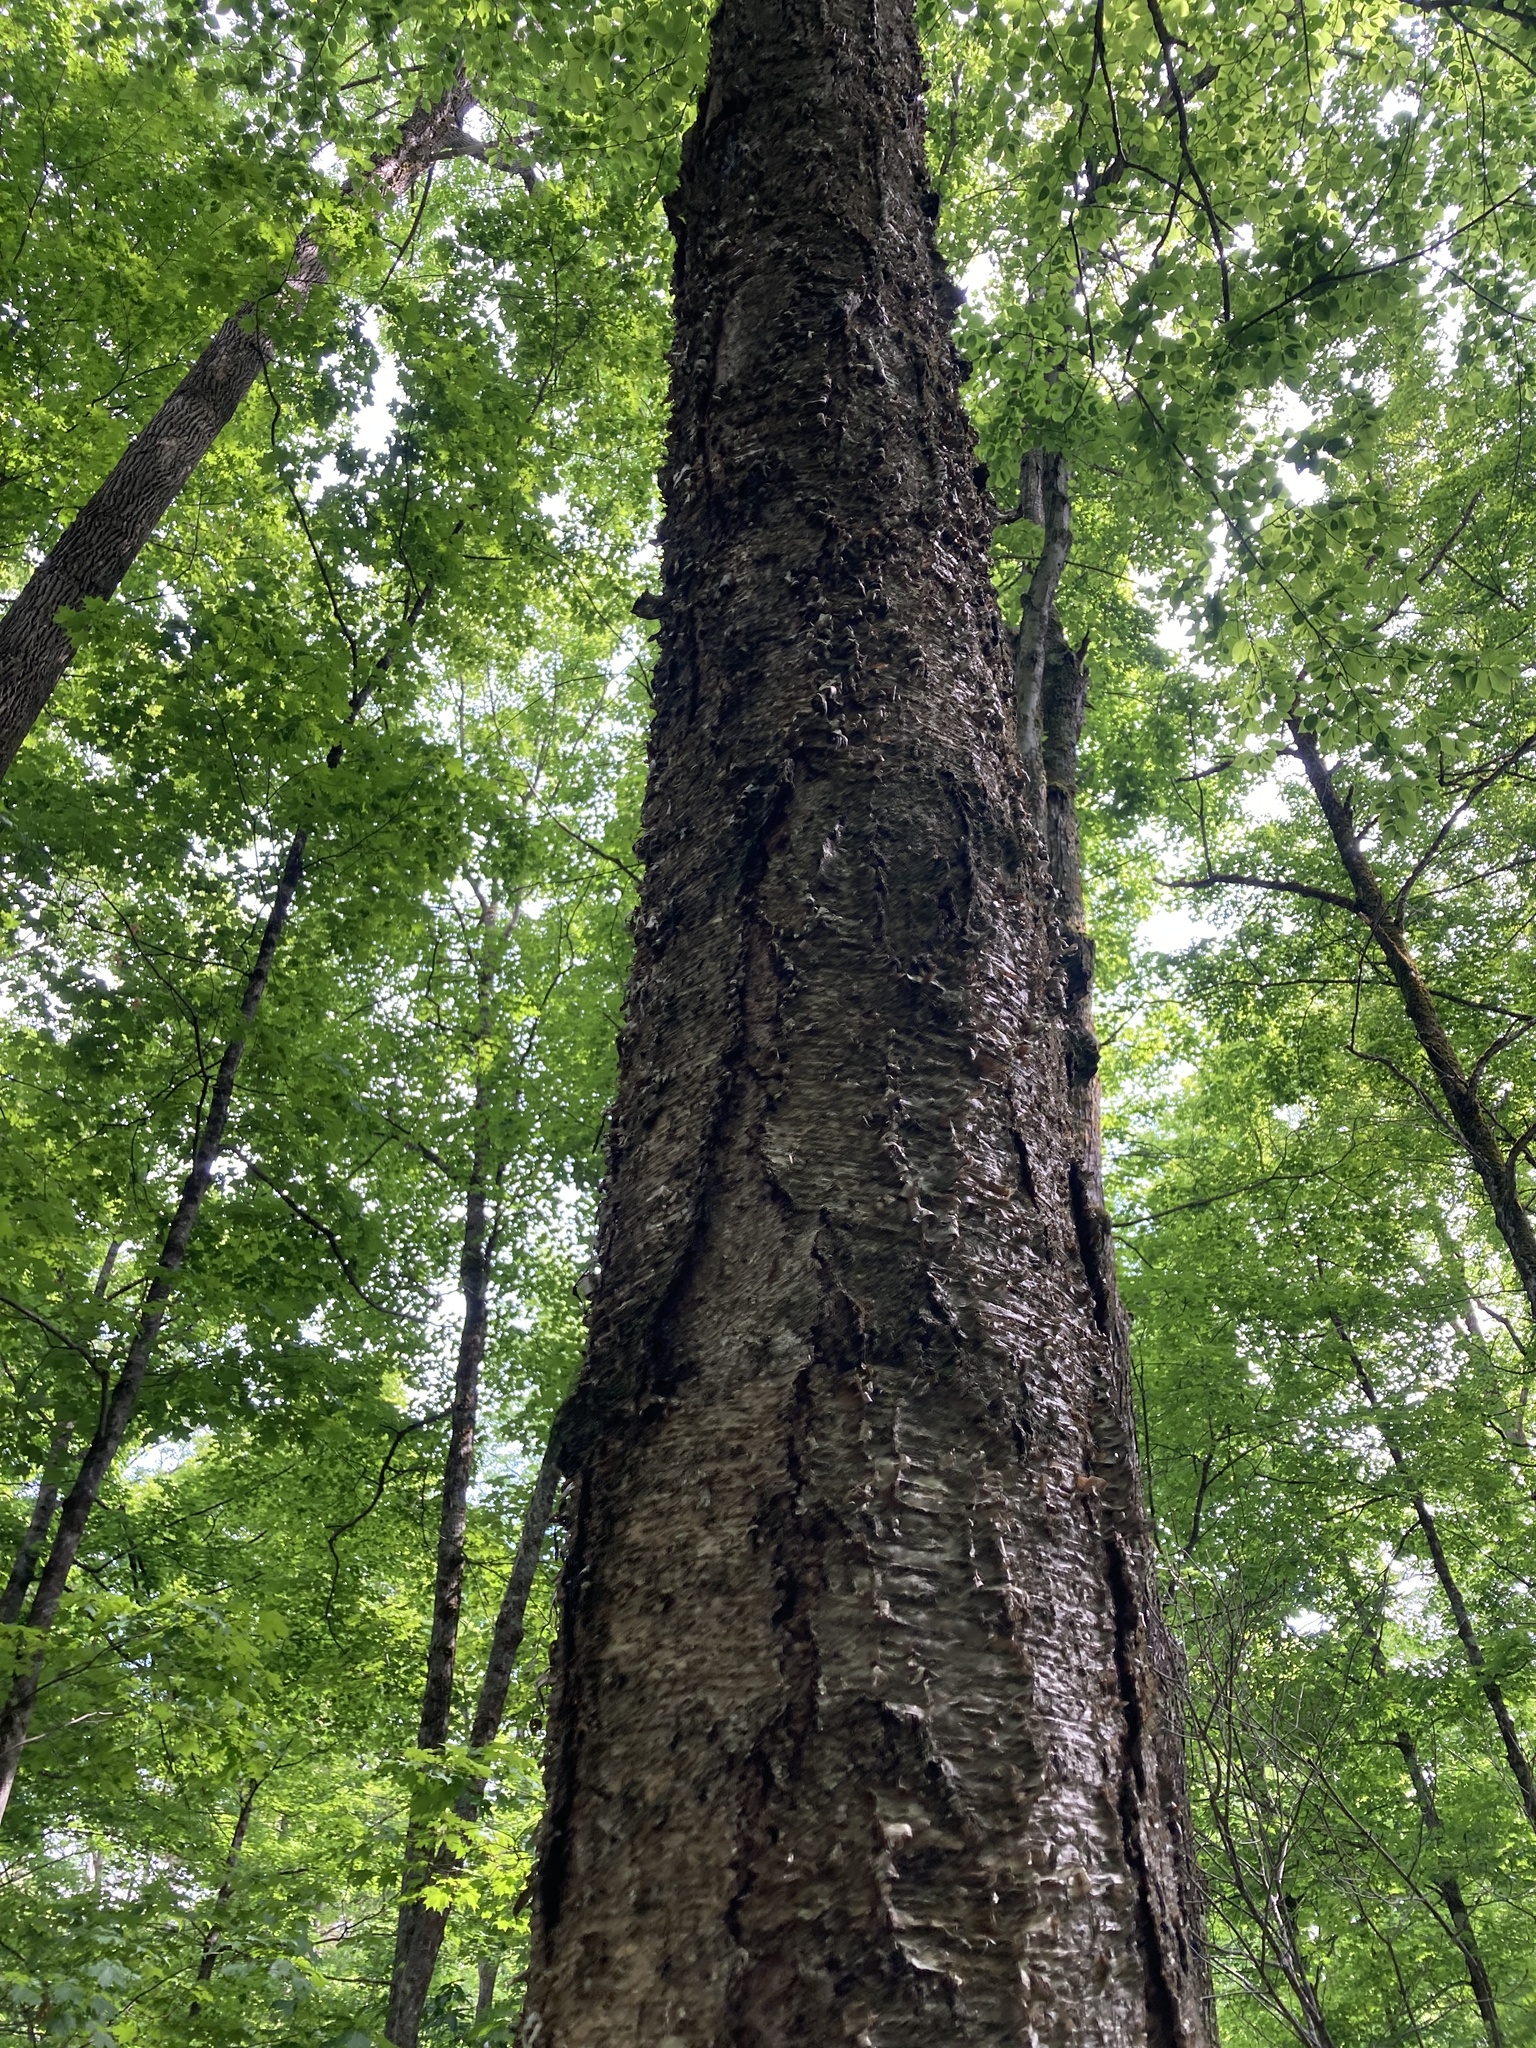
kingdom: Plantae
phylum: Tracheophyta
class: Magnoliopsida
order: Fagales
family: Betulaceae
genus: Betula
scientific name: Betula alleghaniensis
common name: Yellow birch
